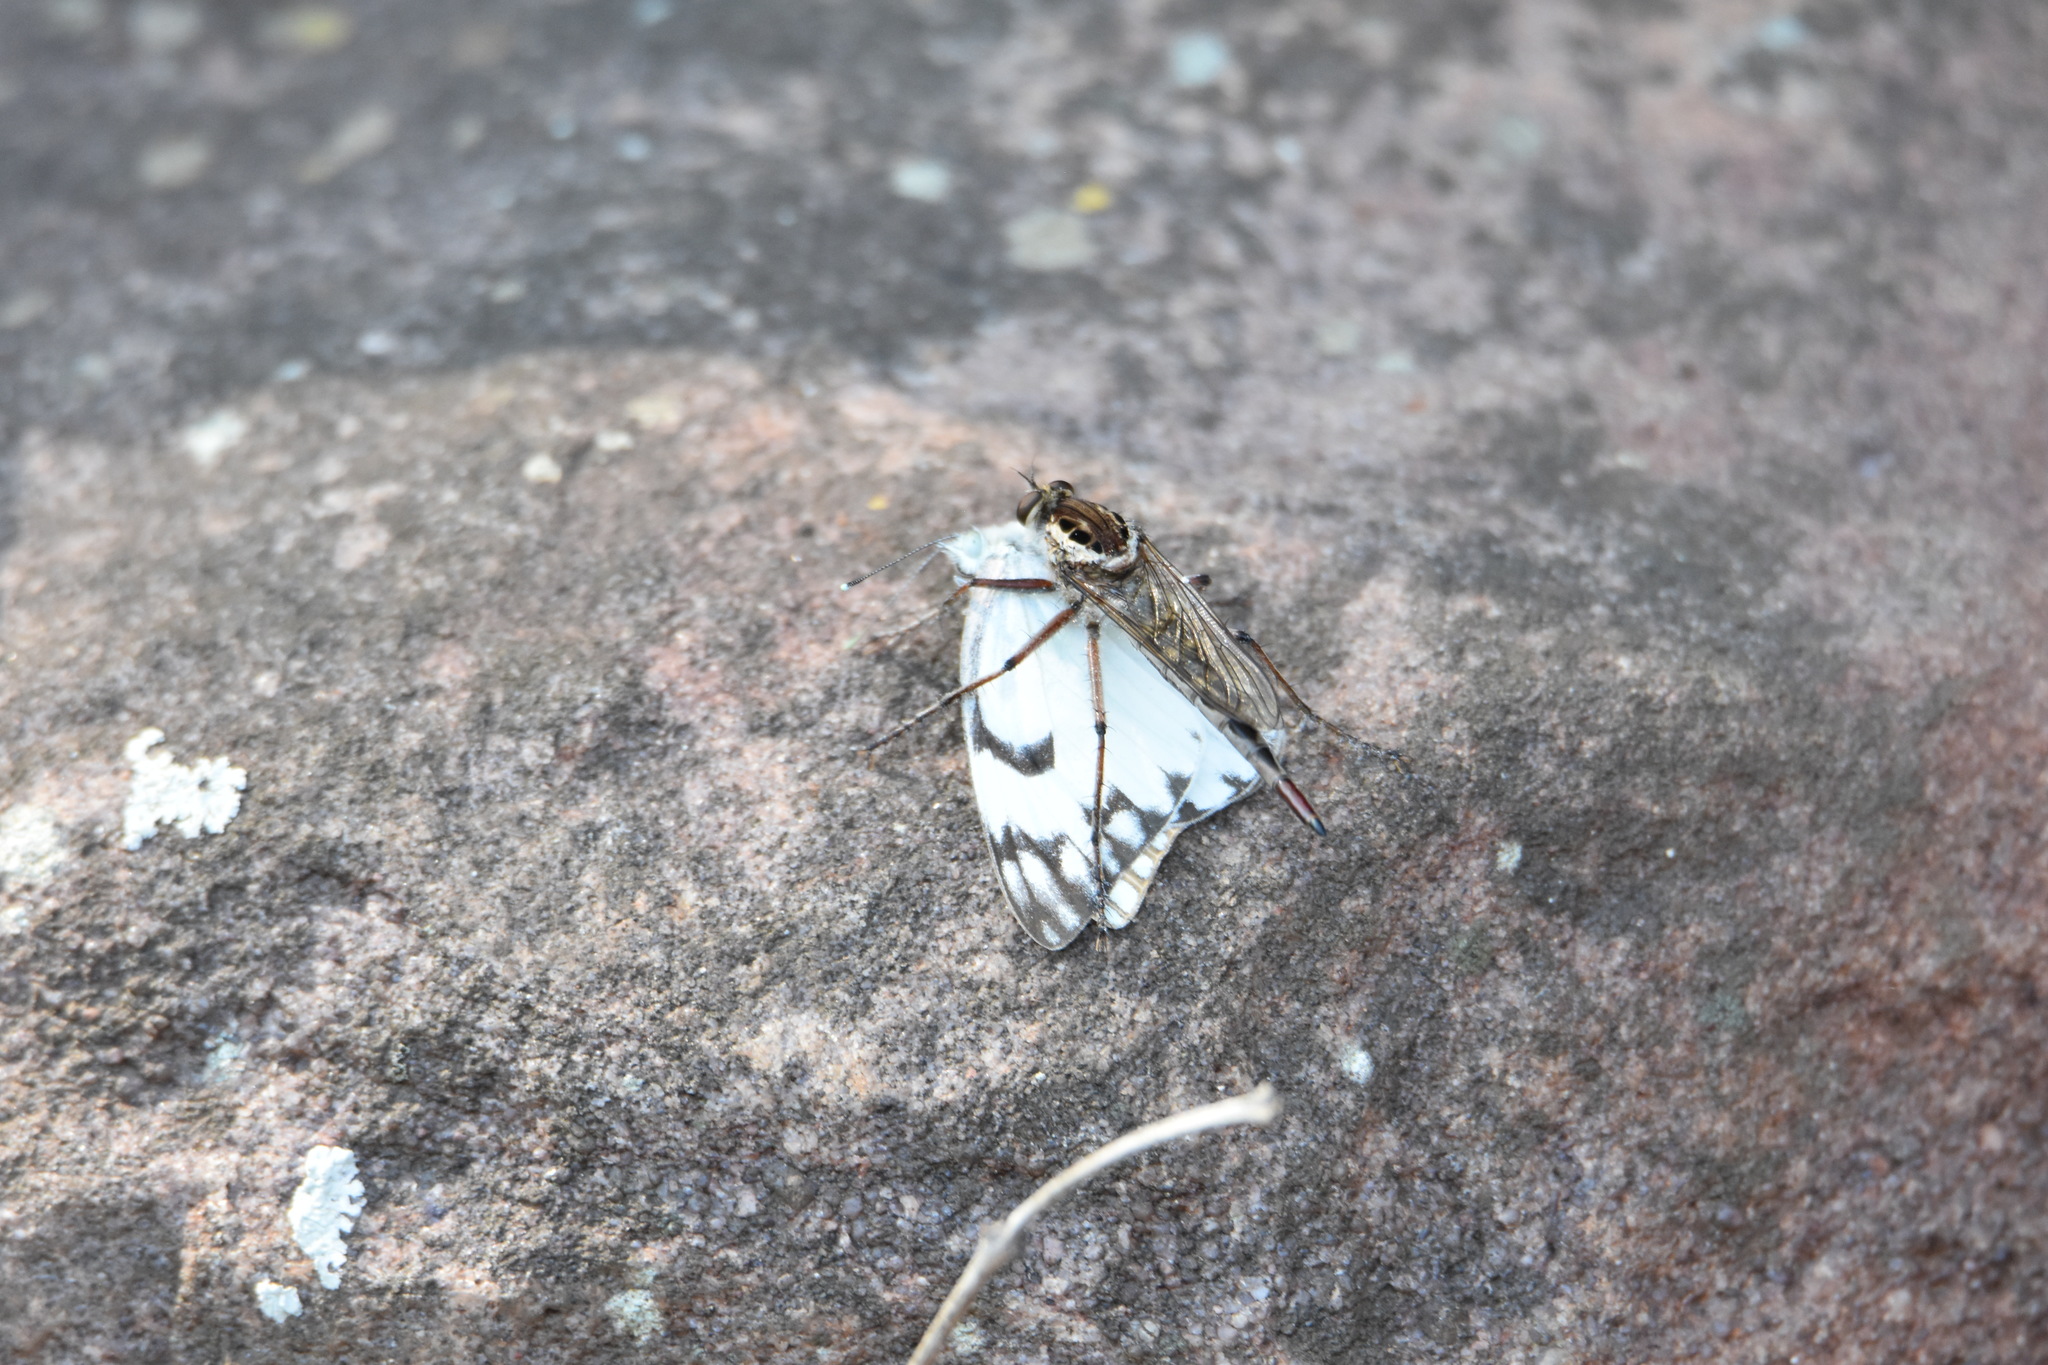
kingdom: Animalia
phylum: Arthropoda
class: Insecta
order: Lepidoptera
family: Pieridae
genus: Belenois
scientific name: Belenois gidica
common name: Pointed caper white
